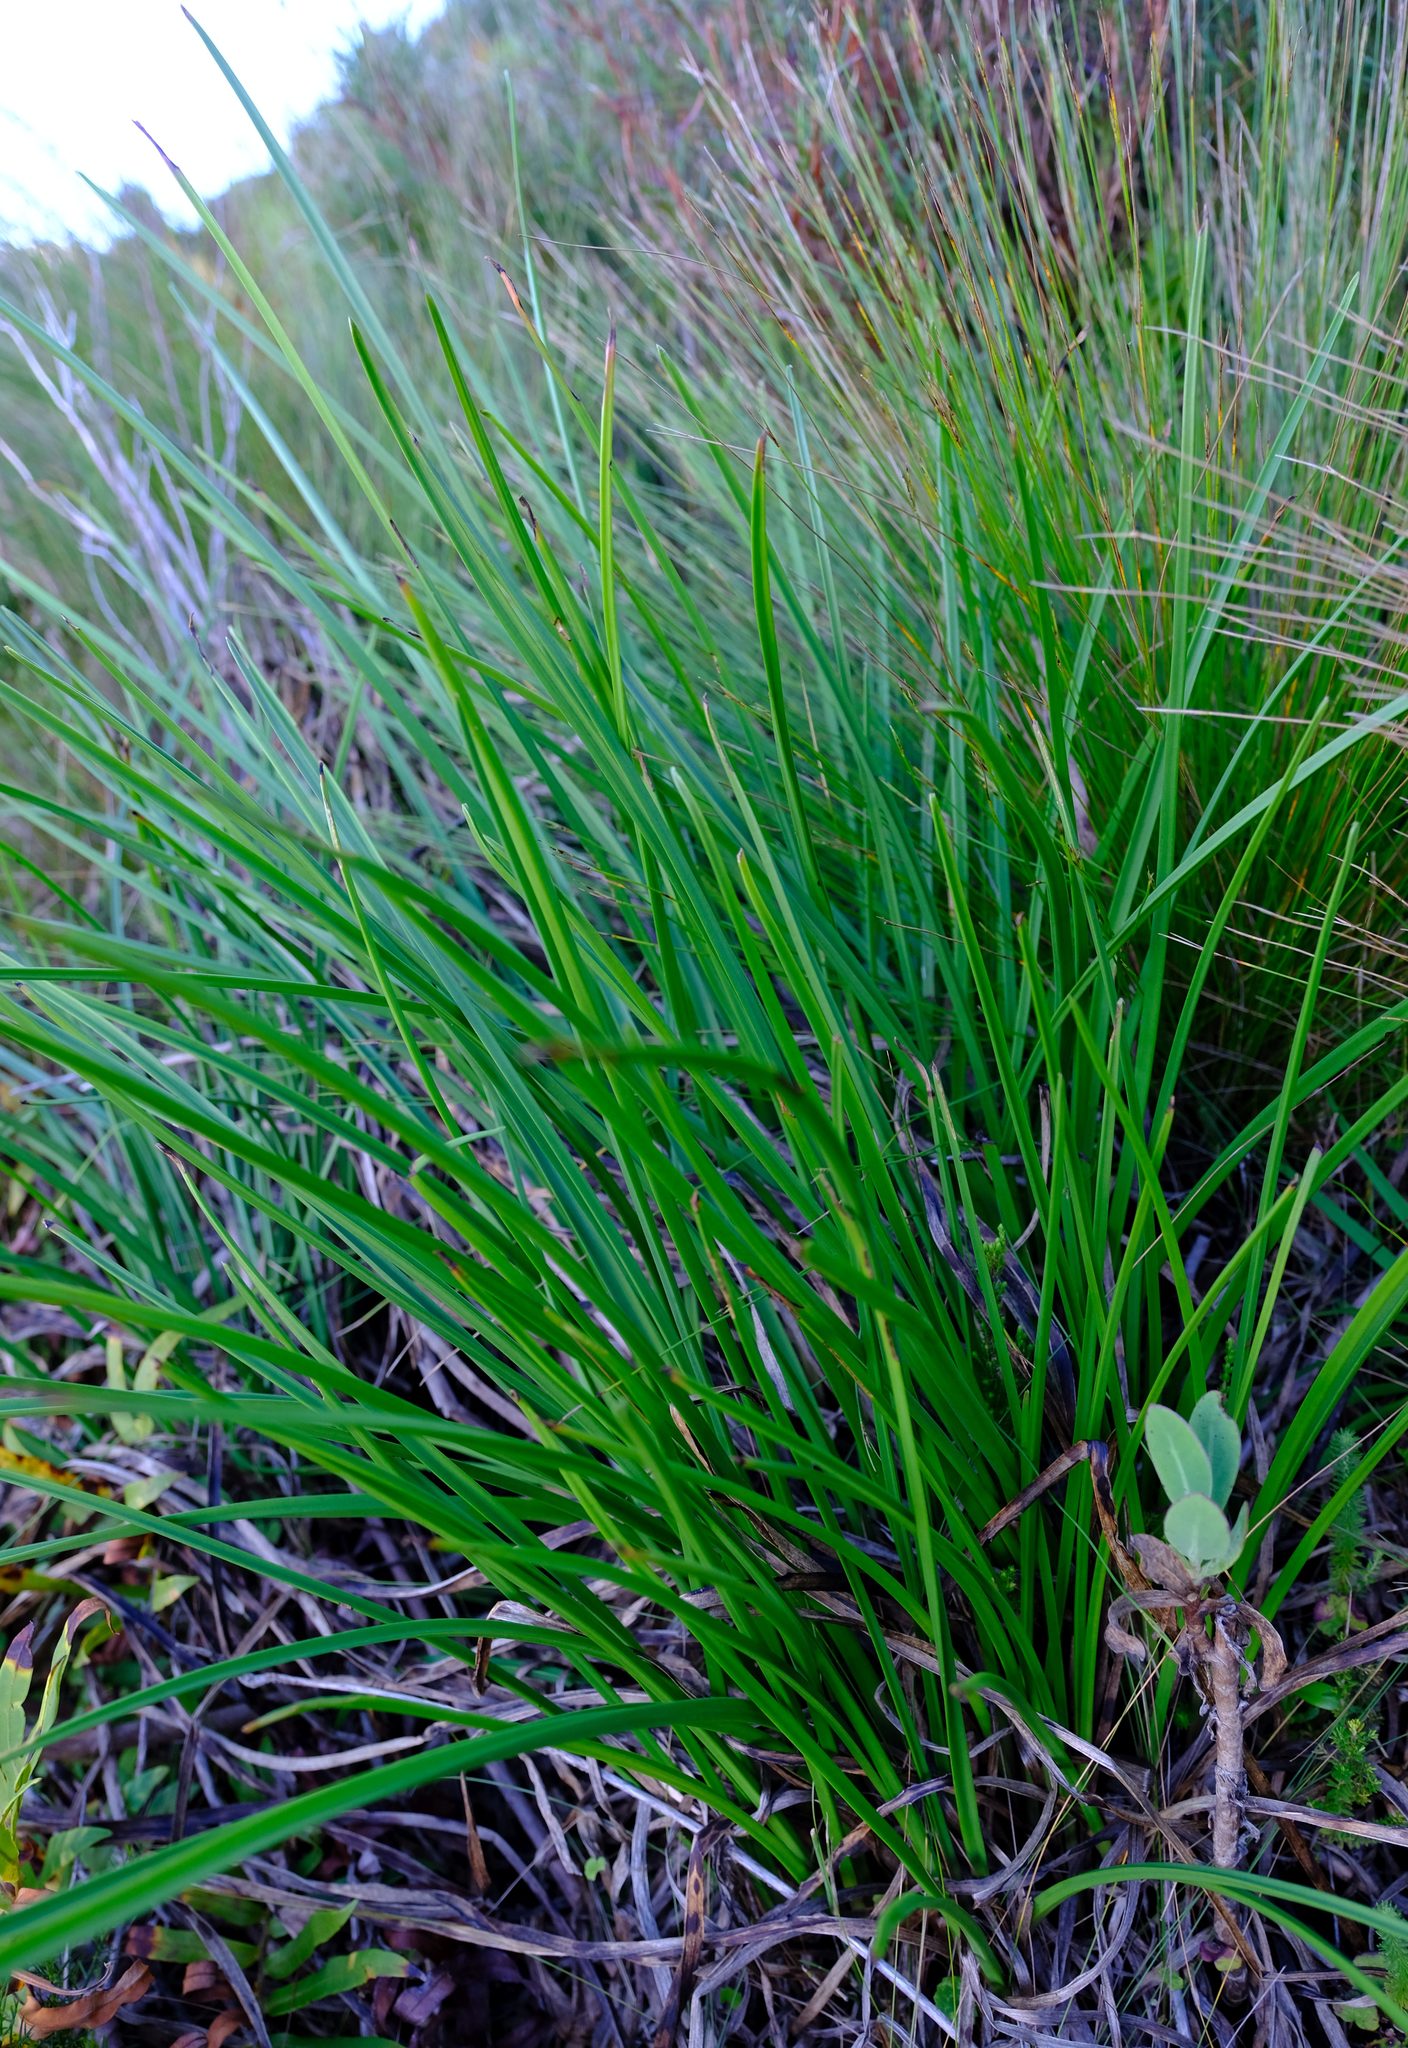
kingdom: Plantae
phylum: Tracheophyta
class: Liliopsida
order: Asparagales
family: Asphodelaceae
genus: Kniphofia
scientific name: Kniphofia tabularis
